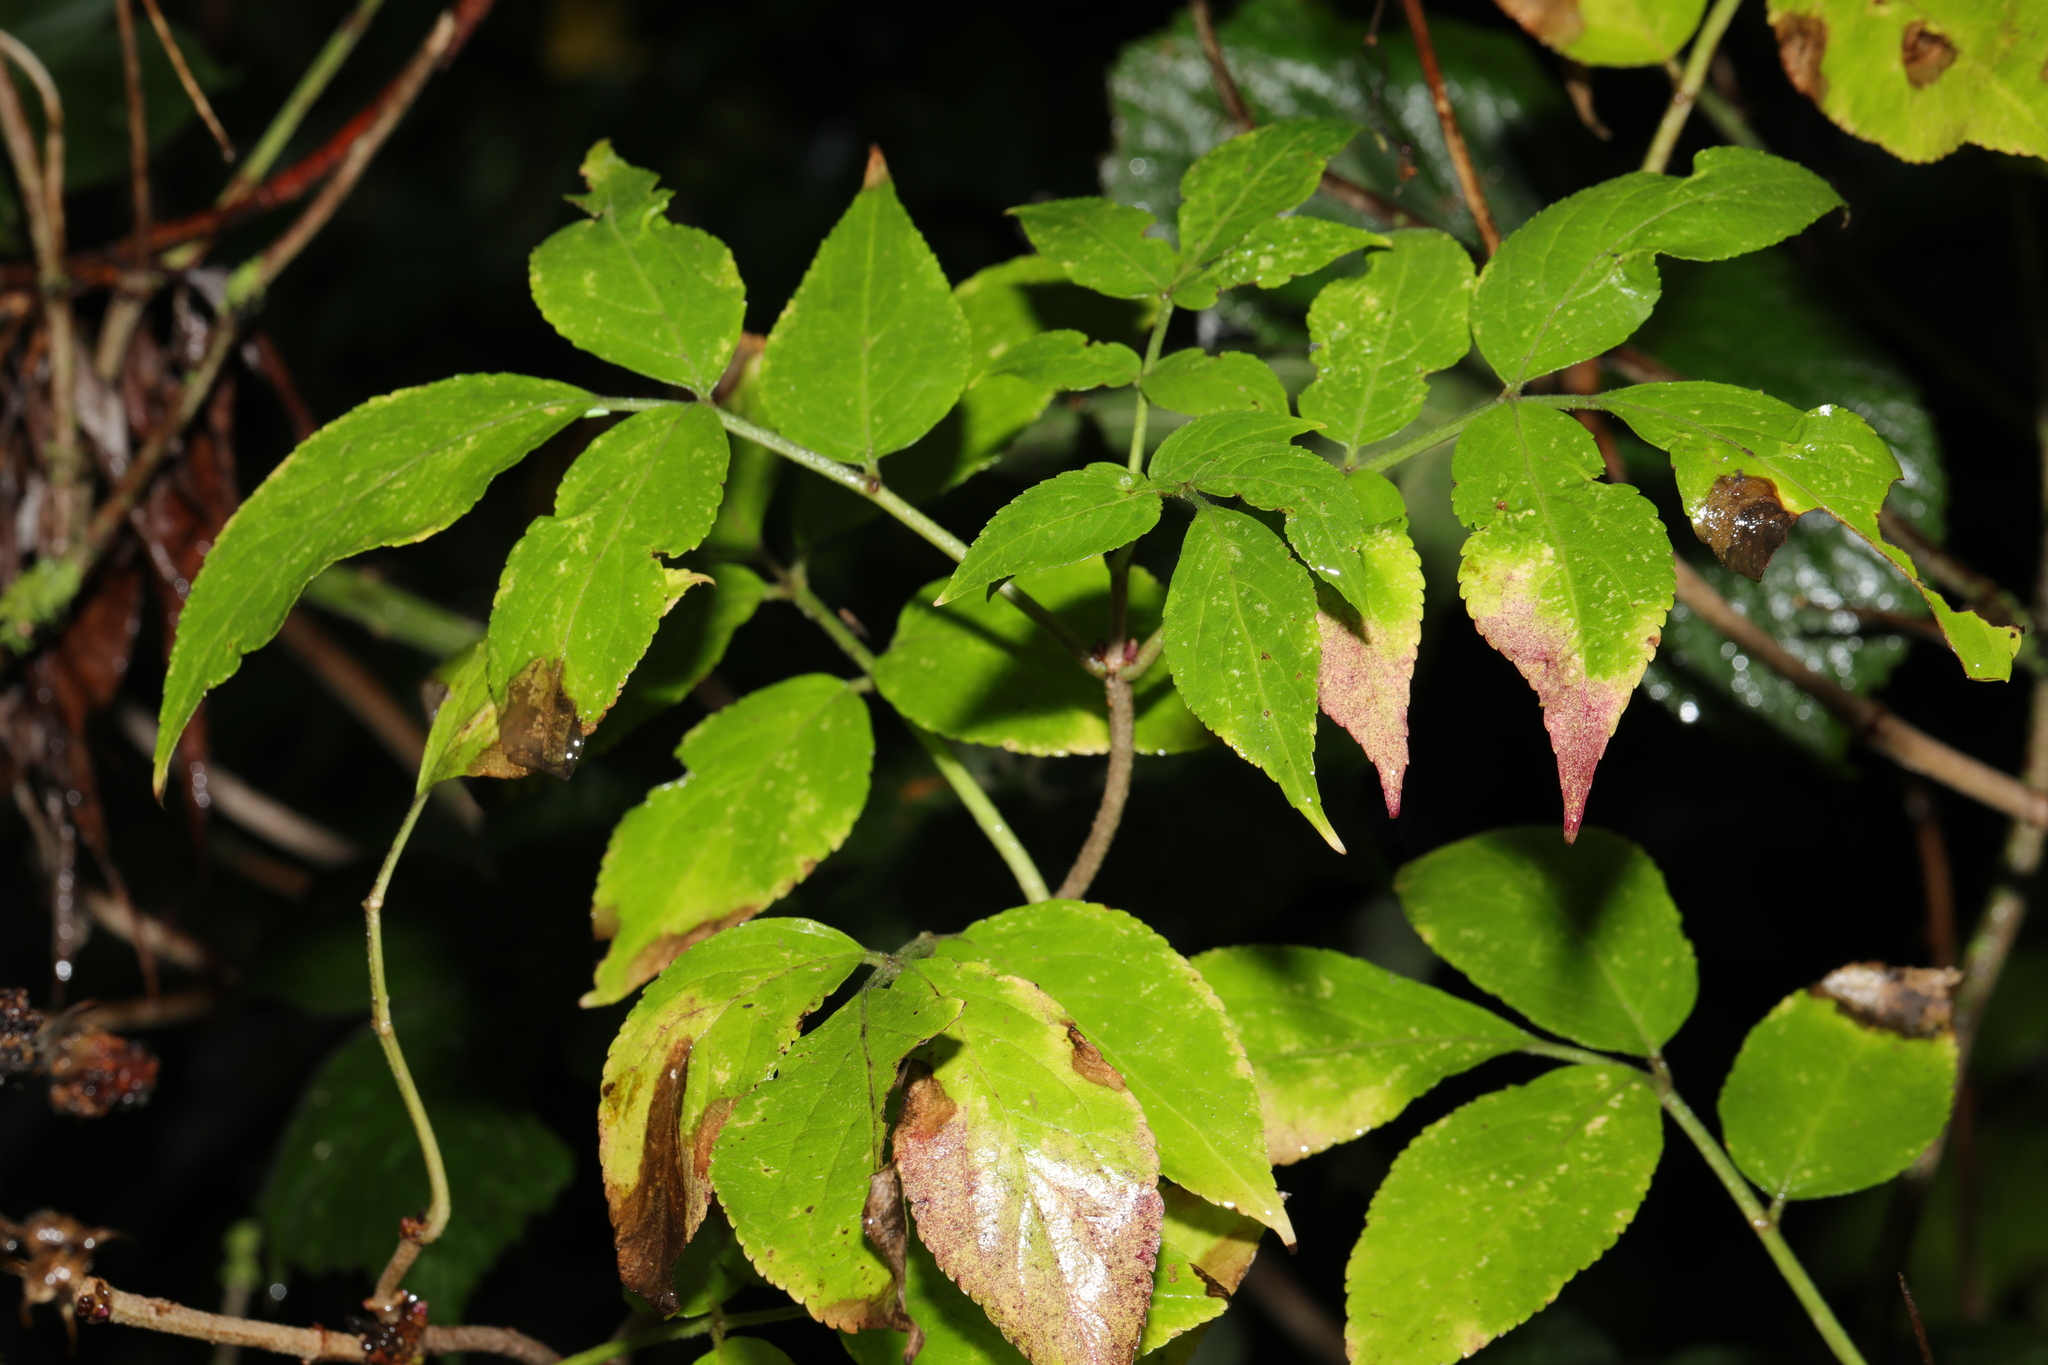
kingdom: Plantae
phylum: Tracheophyta
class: Magnoliopsida
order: Dipsacales
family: Viburnaceae
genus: Sambucus
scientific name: Sambucus nigra
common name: Elder
